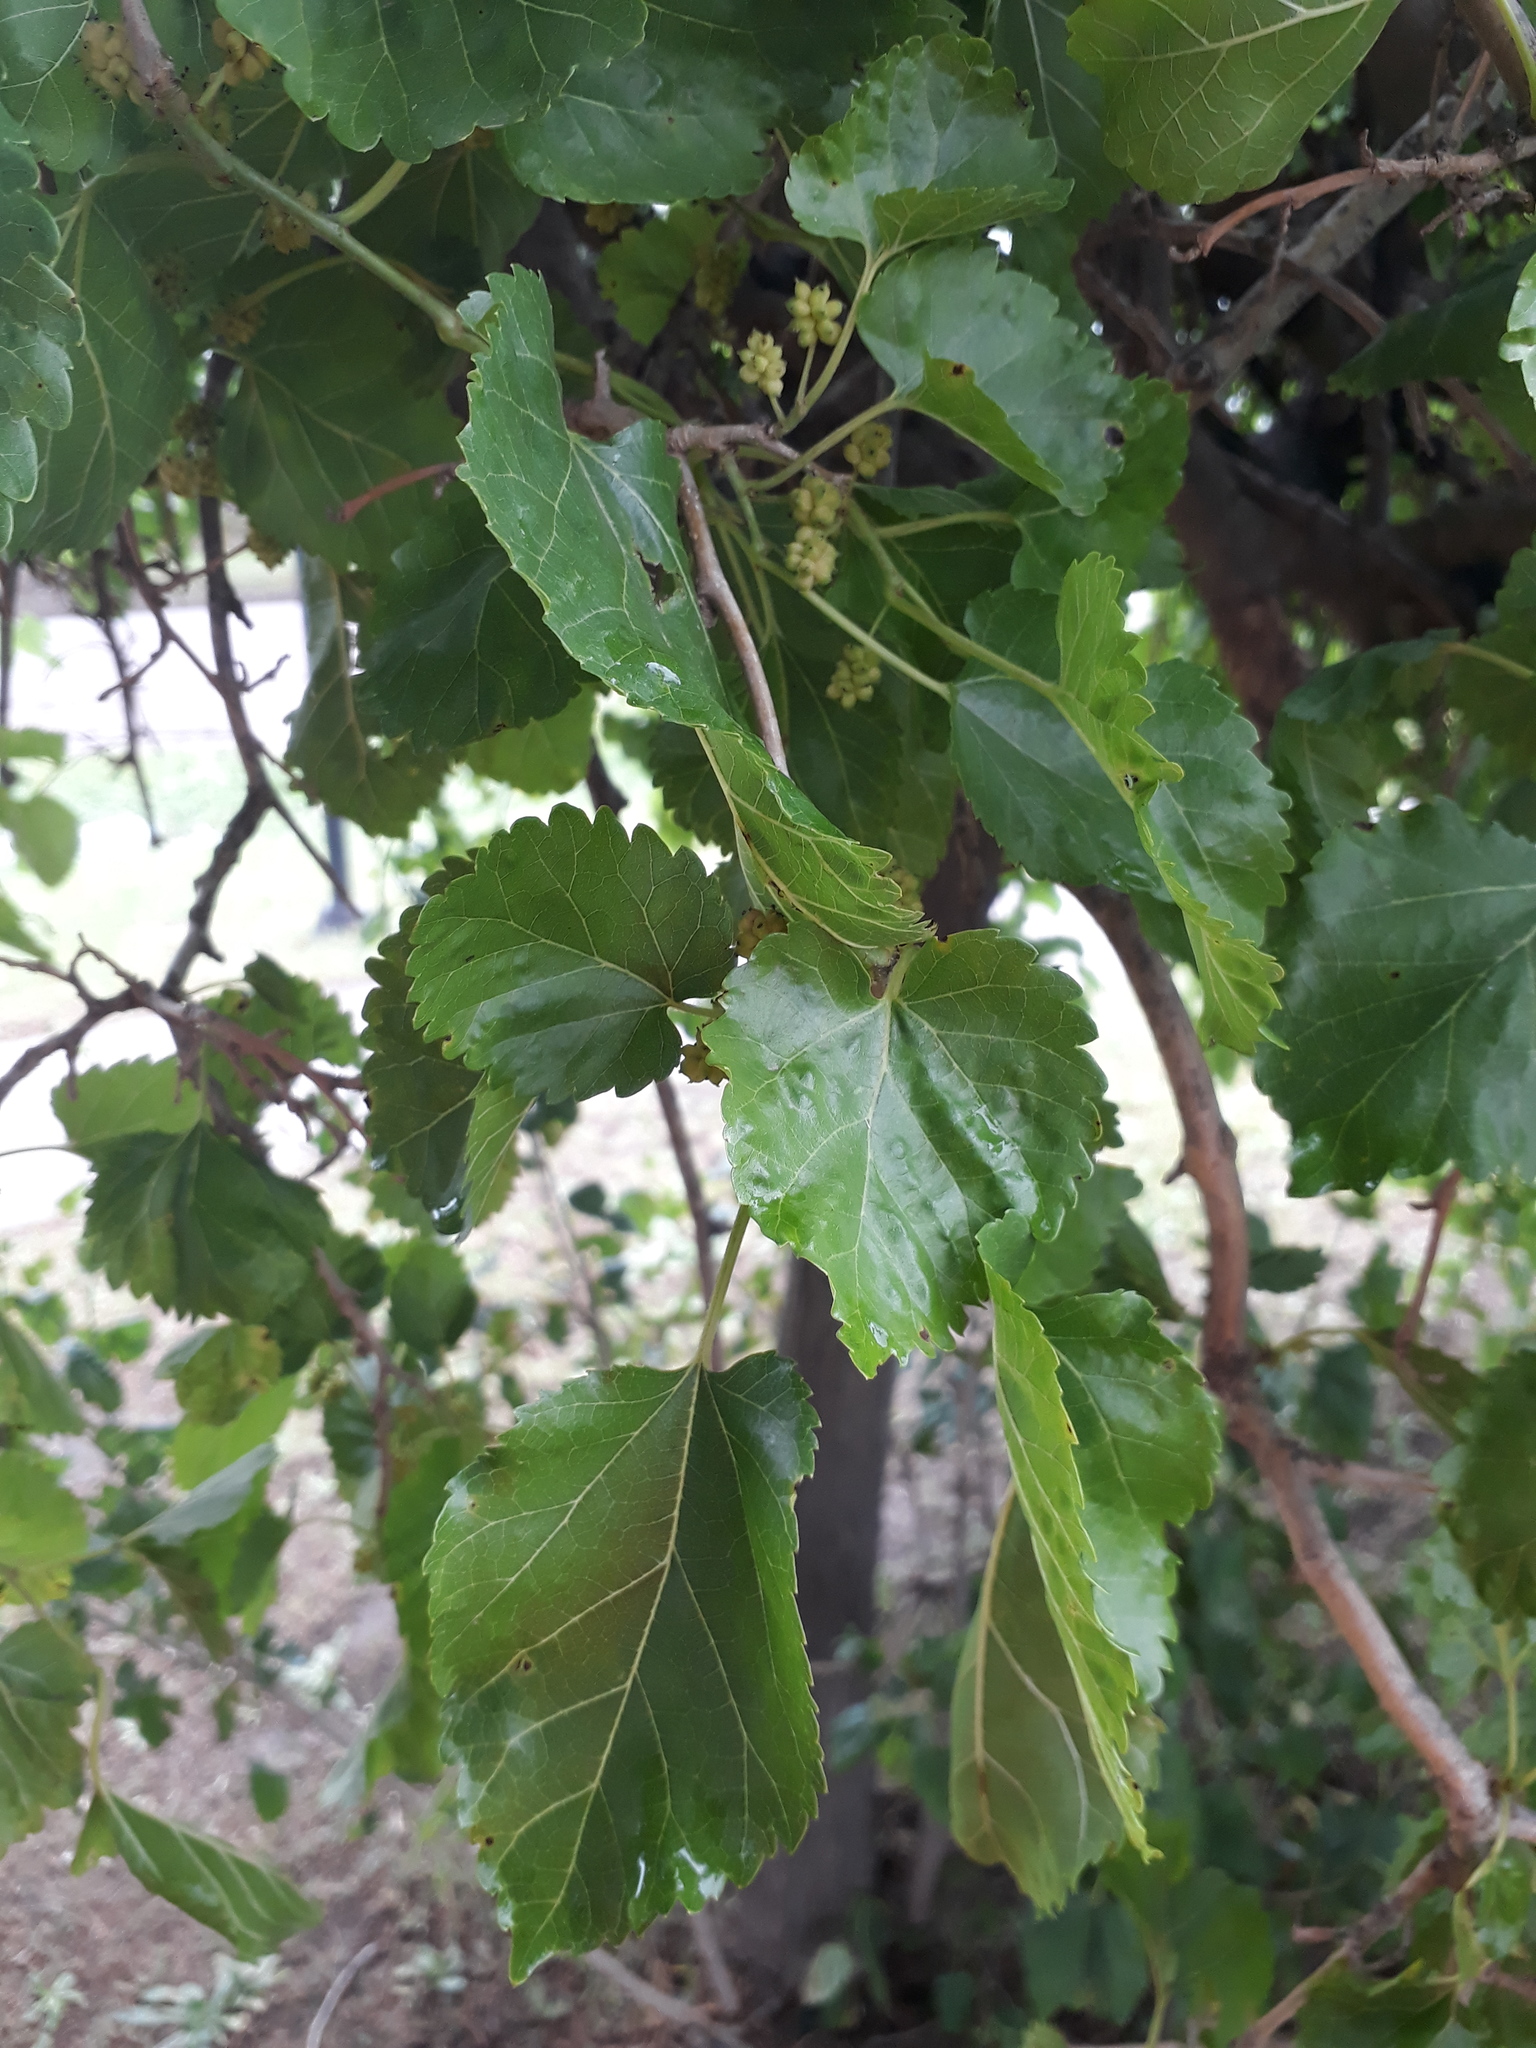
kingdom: Plantae
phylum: Tracheophyta
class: Magnoliopsida
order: Rosales
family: Moraceae
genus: Morus
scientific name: Morus alba
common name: White mulberry
